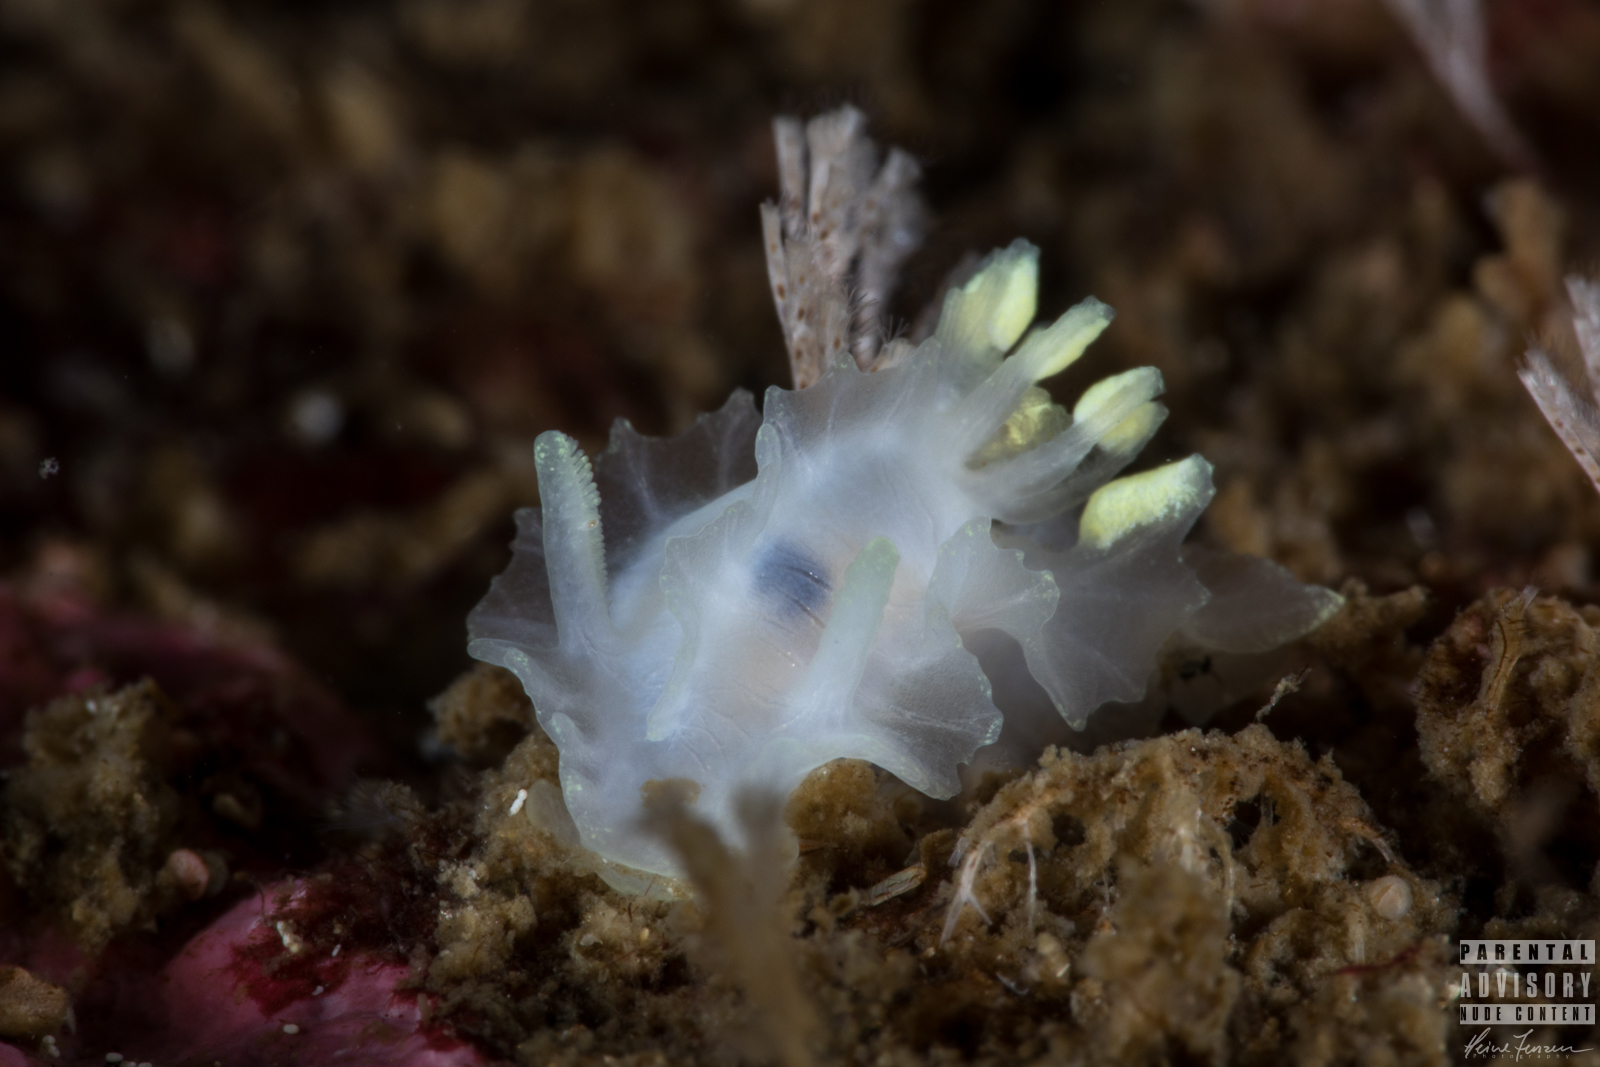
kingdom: Animalia
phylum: Mollusca
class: Gastropoda
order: Nudibranchia
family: Goniodorididae
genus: Lophodoris
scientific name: Lophodoris danielsseni
